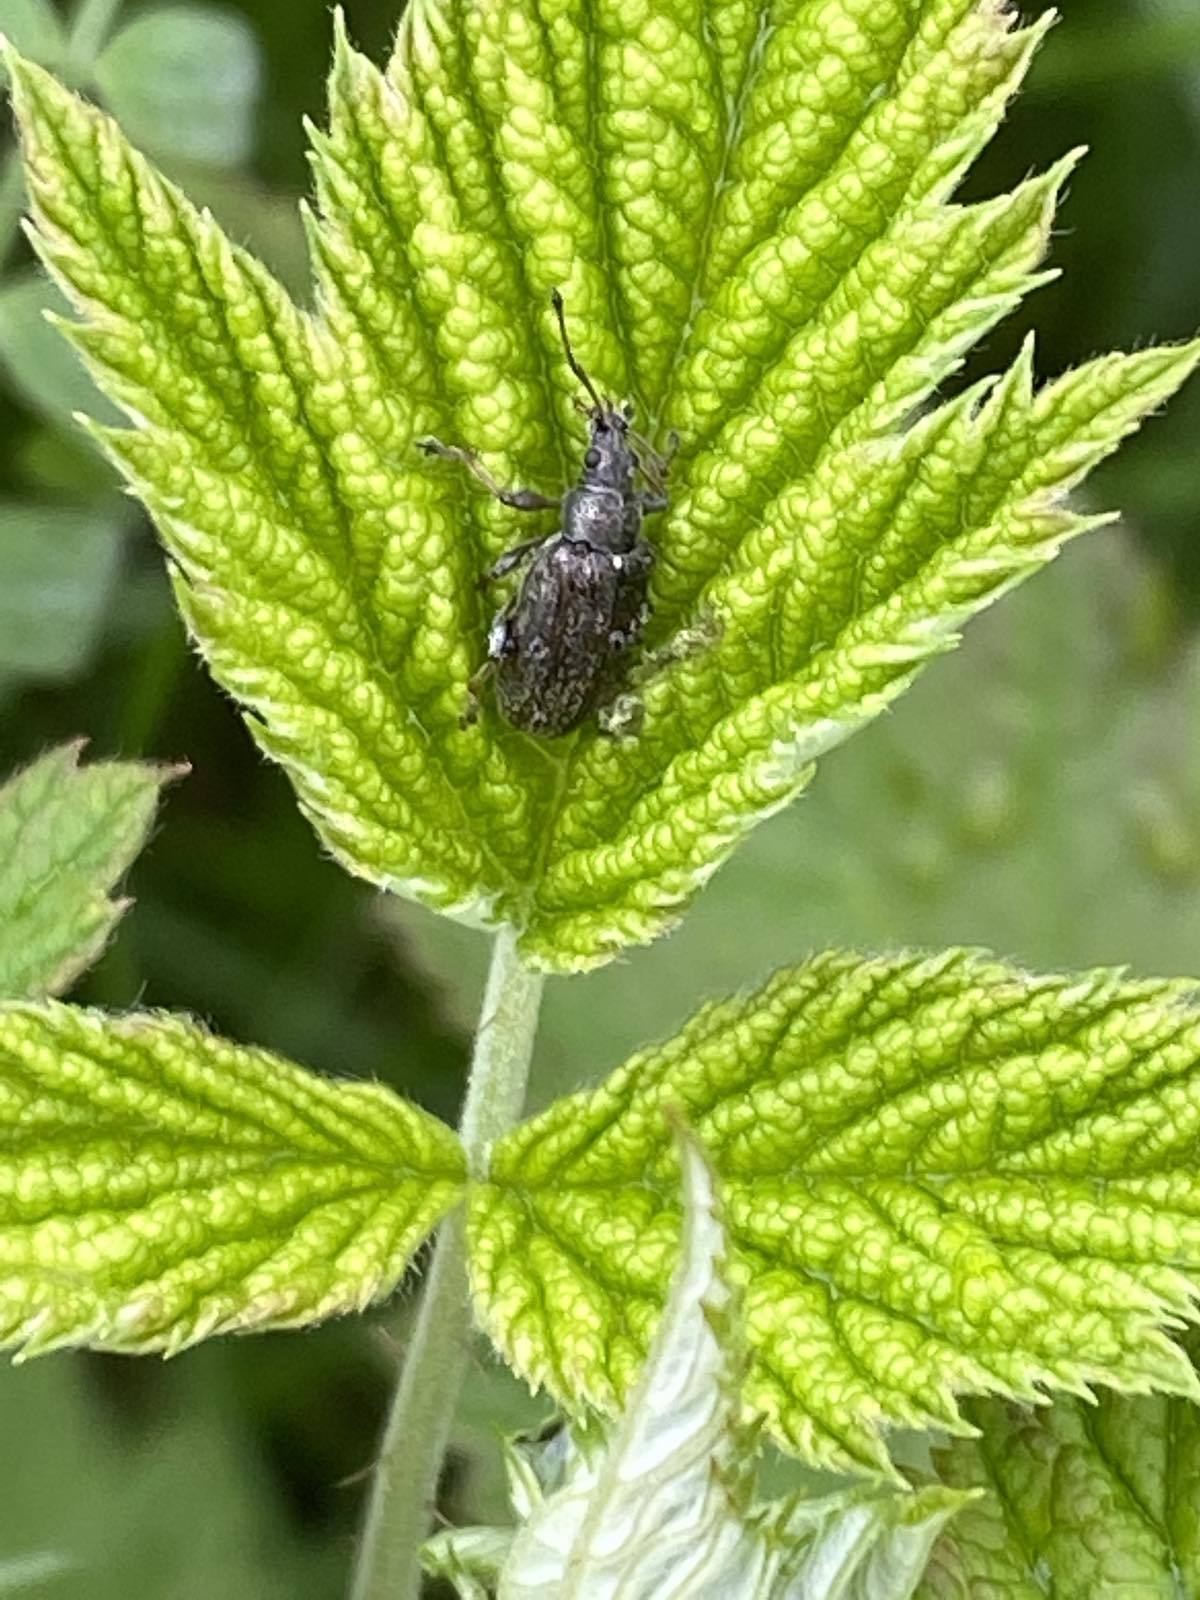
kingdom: Animalia
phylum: Arthropoda
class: Insecta
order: Coleoptera
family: Curculionidae
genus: Phyllobius
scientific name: Phyllobius pyri
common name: Common leaf weevil
